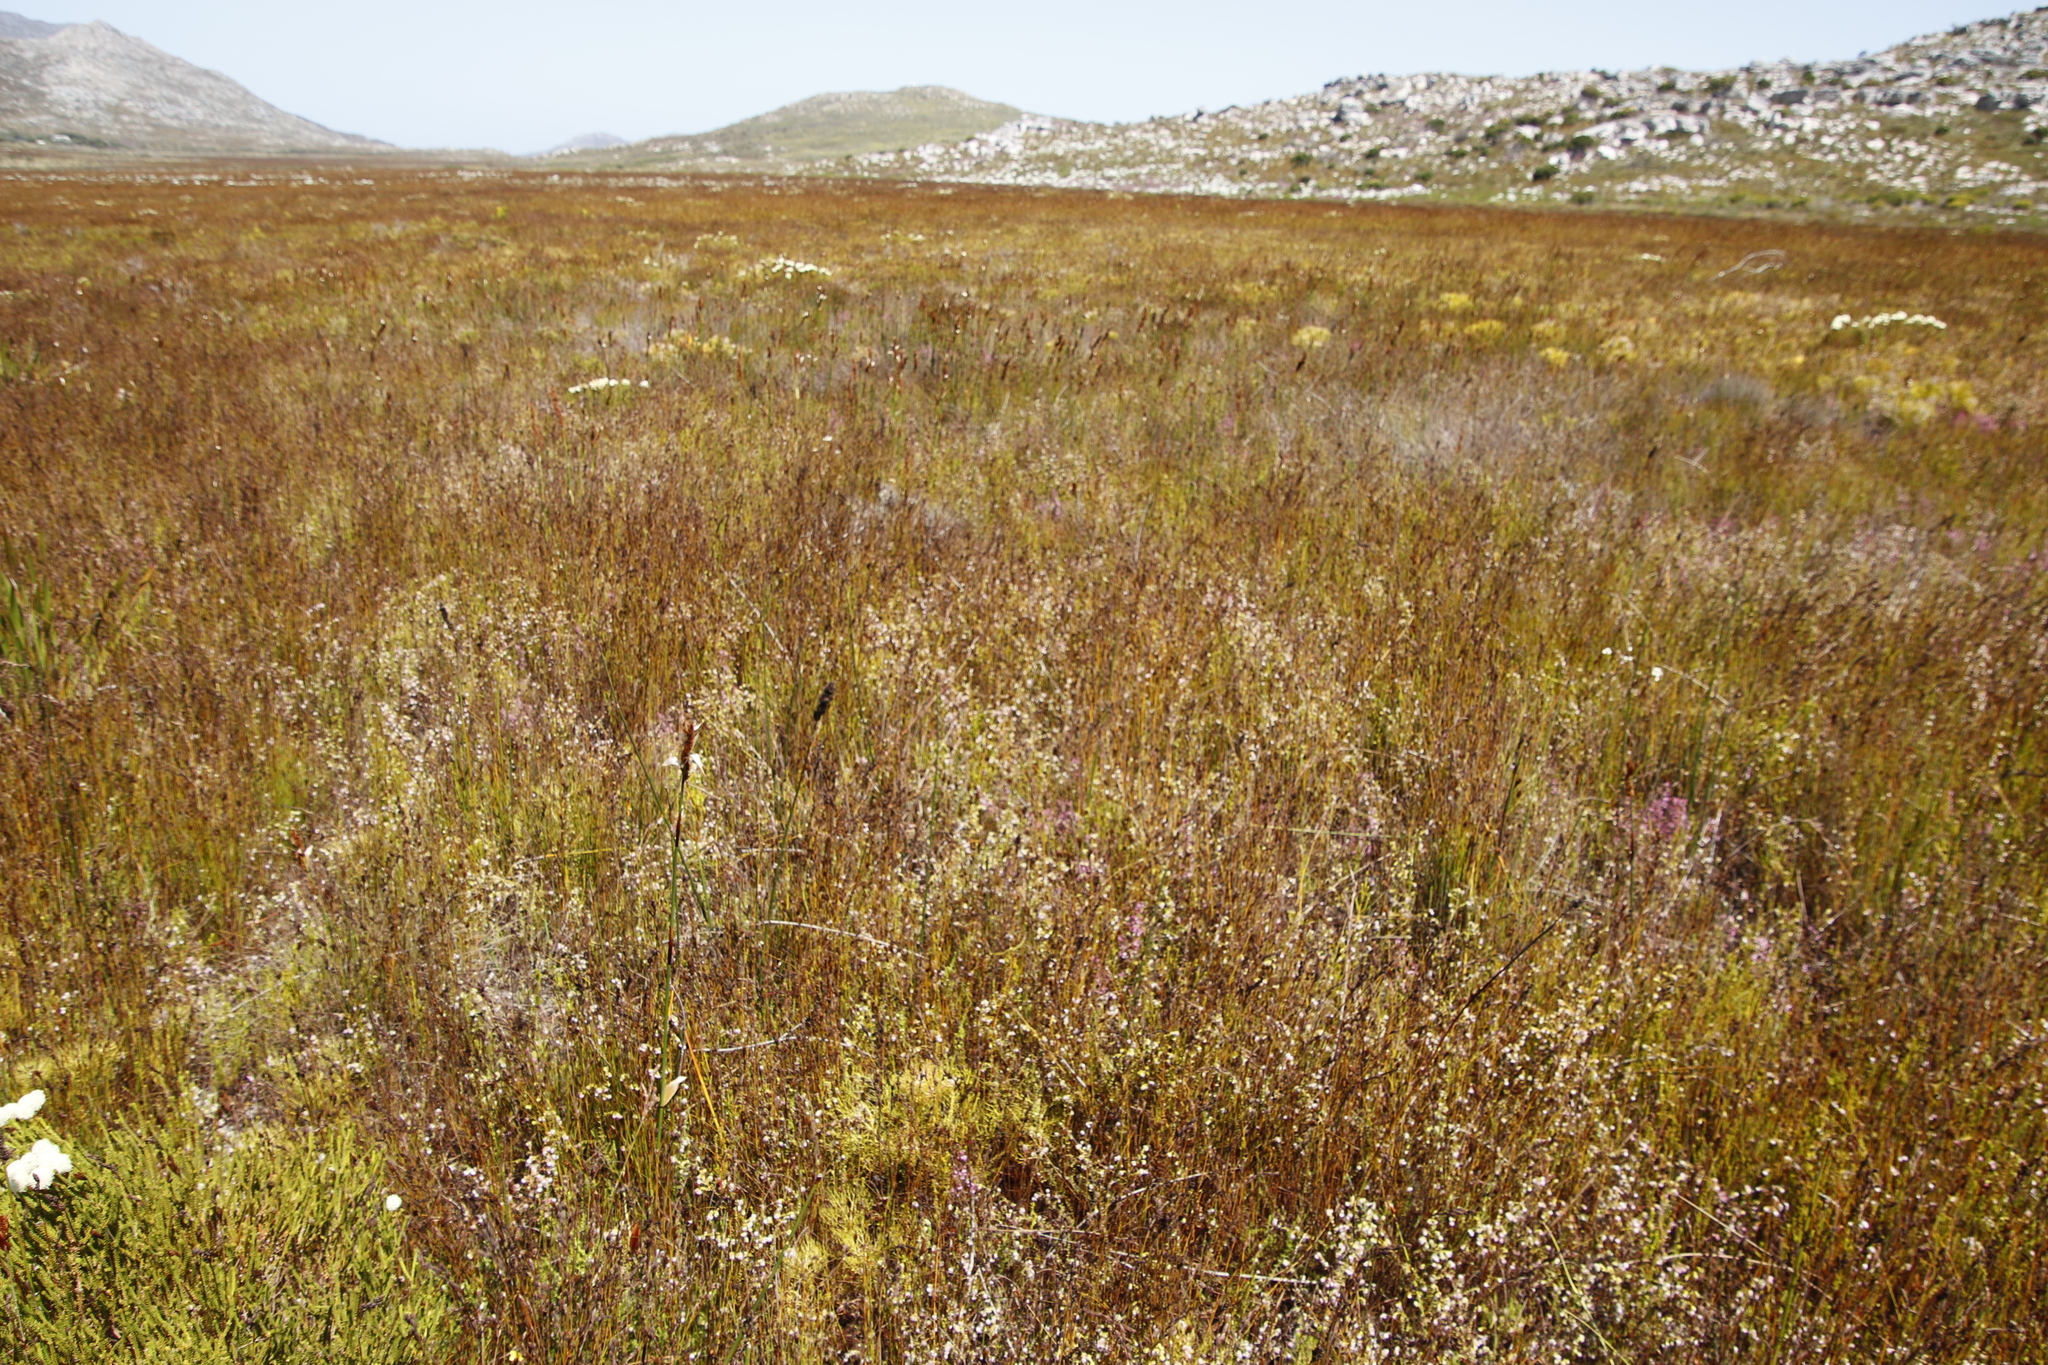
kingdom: Plantae
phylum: Tracheophyta
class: Magnoliopsida
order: Ericales
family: Ericaceae
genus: Erica
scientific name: Erica bruniades
